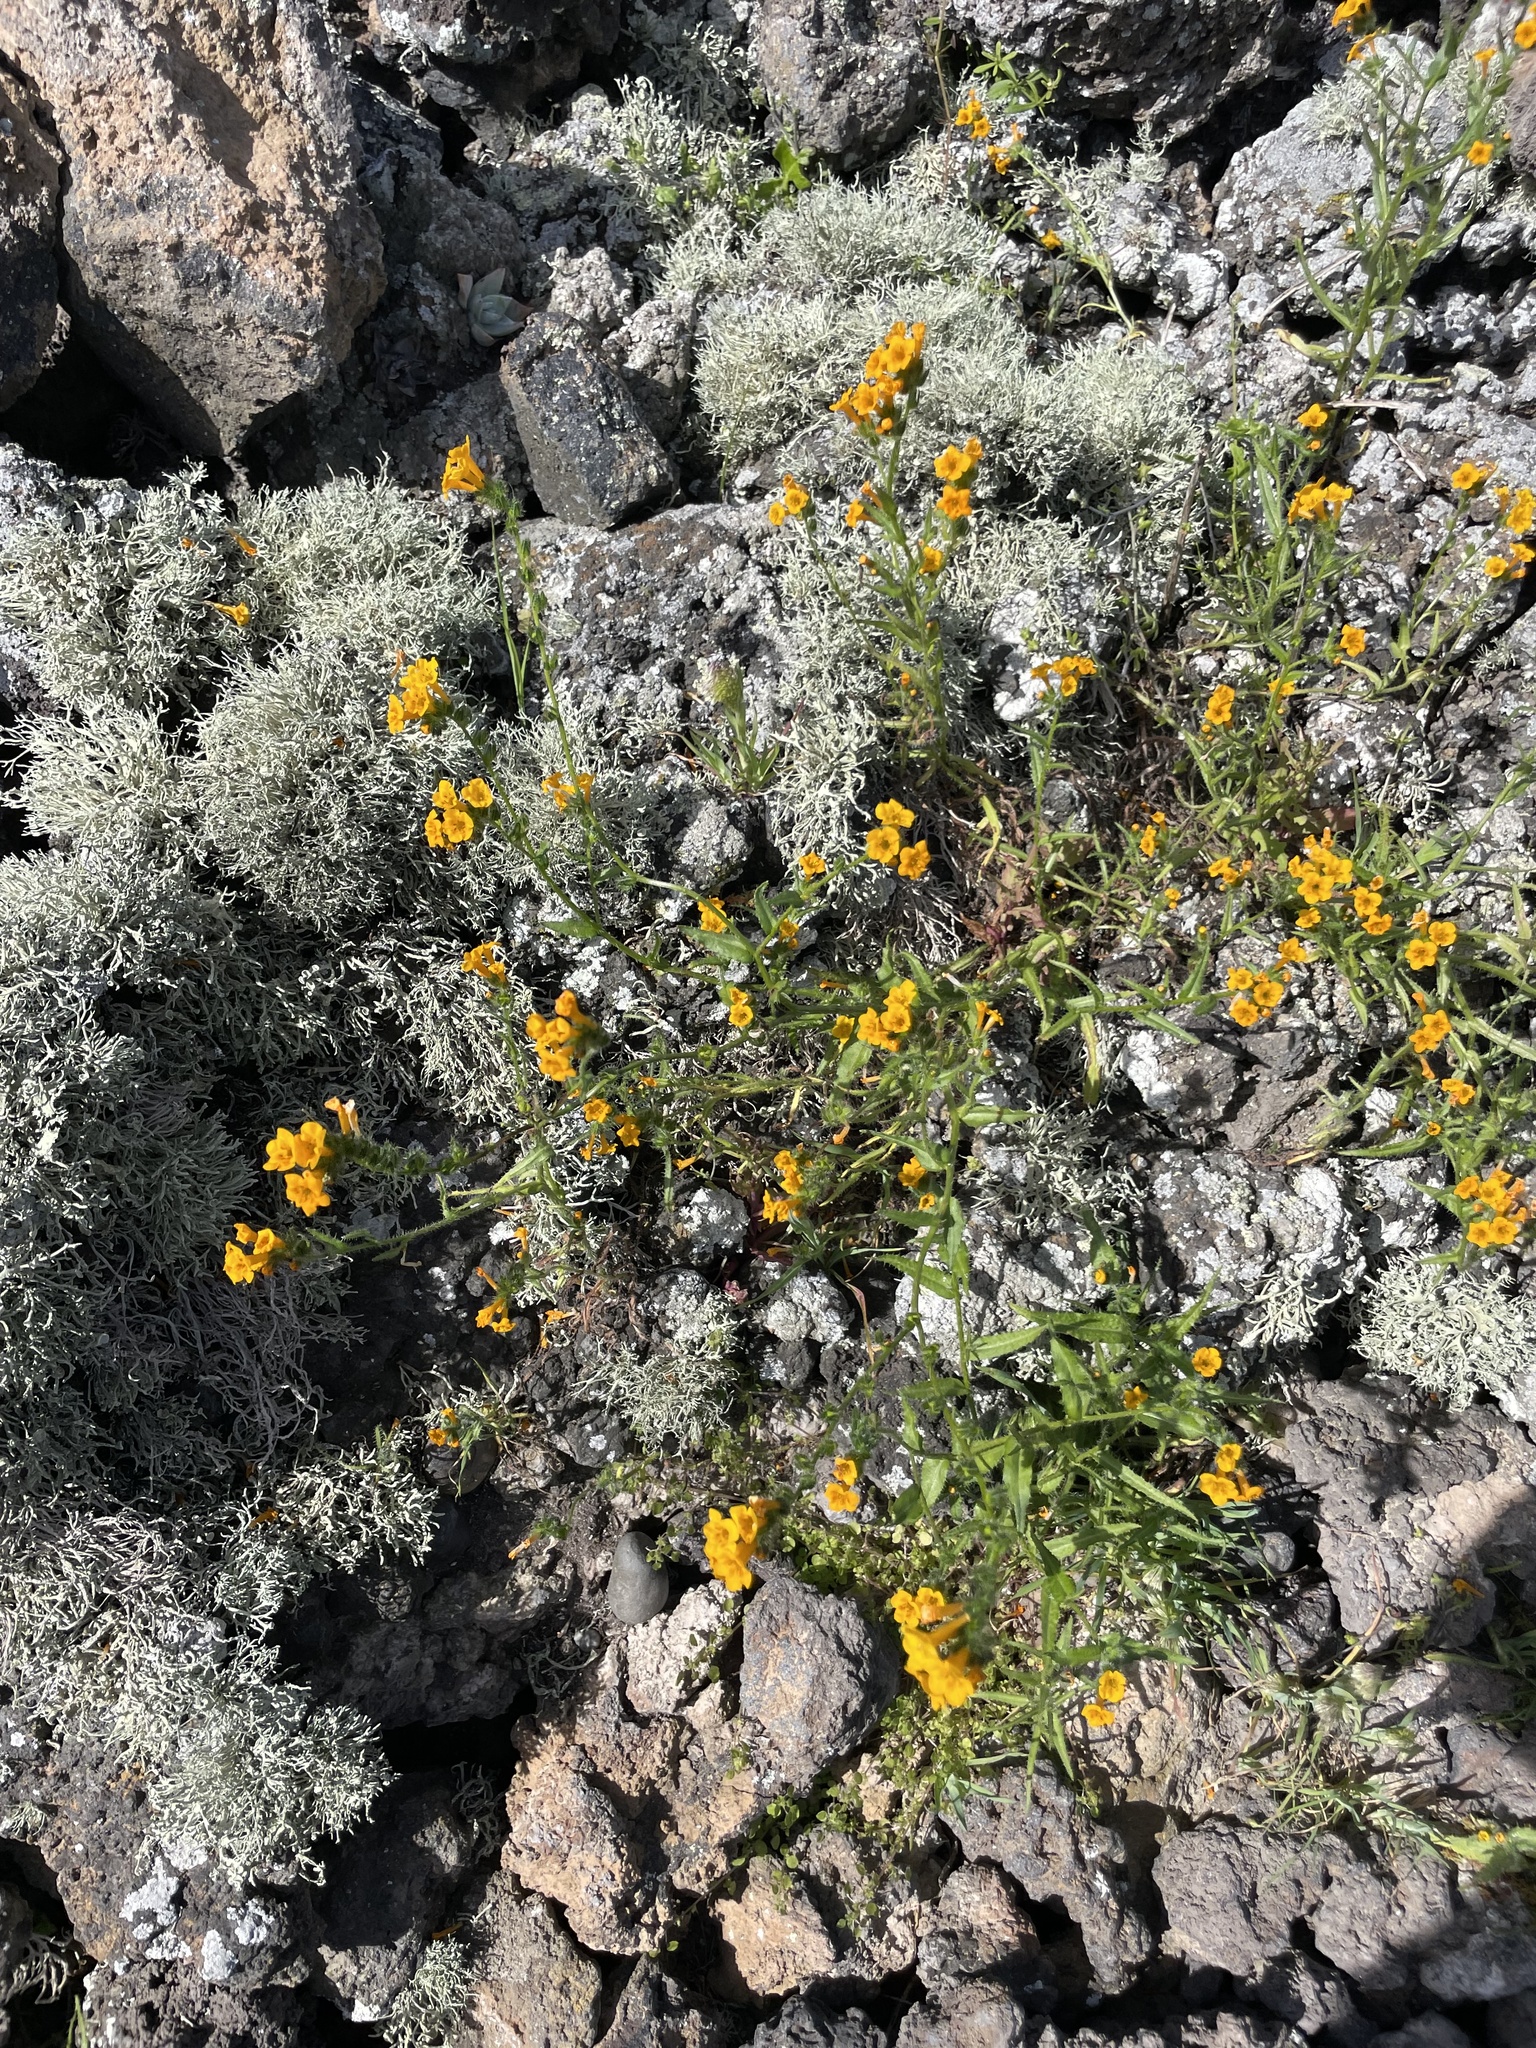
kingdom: Plantae
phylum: Tracheophyta
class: Magnoliopsida
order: Boraginales
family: Boraginaceae
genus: Amsinckia
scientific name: Amsinckia inepta
